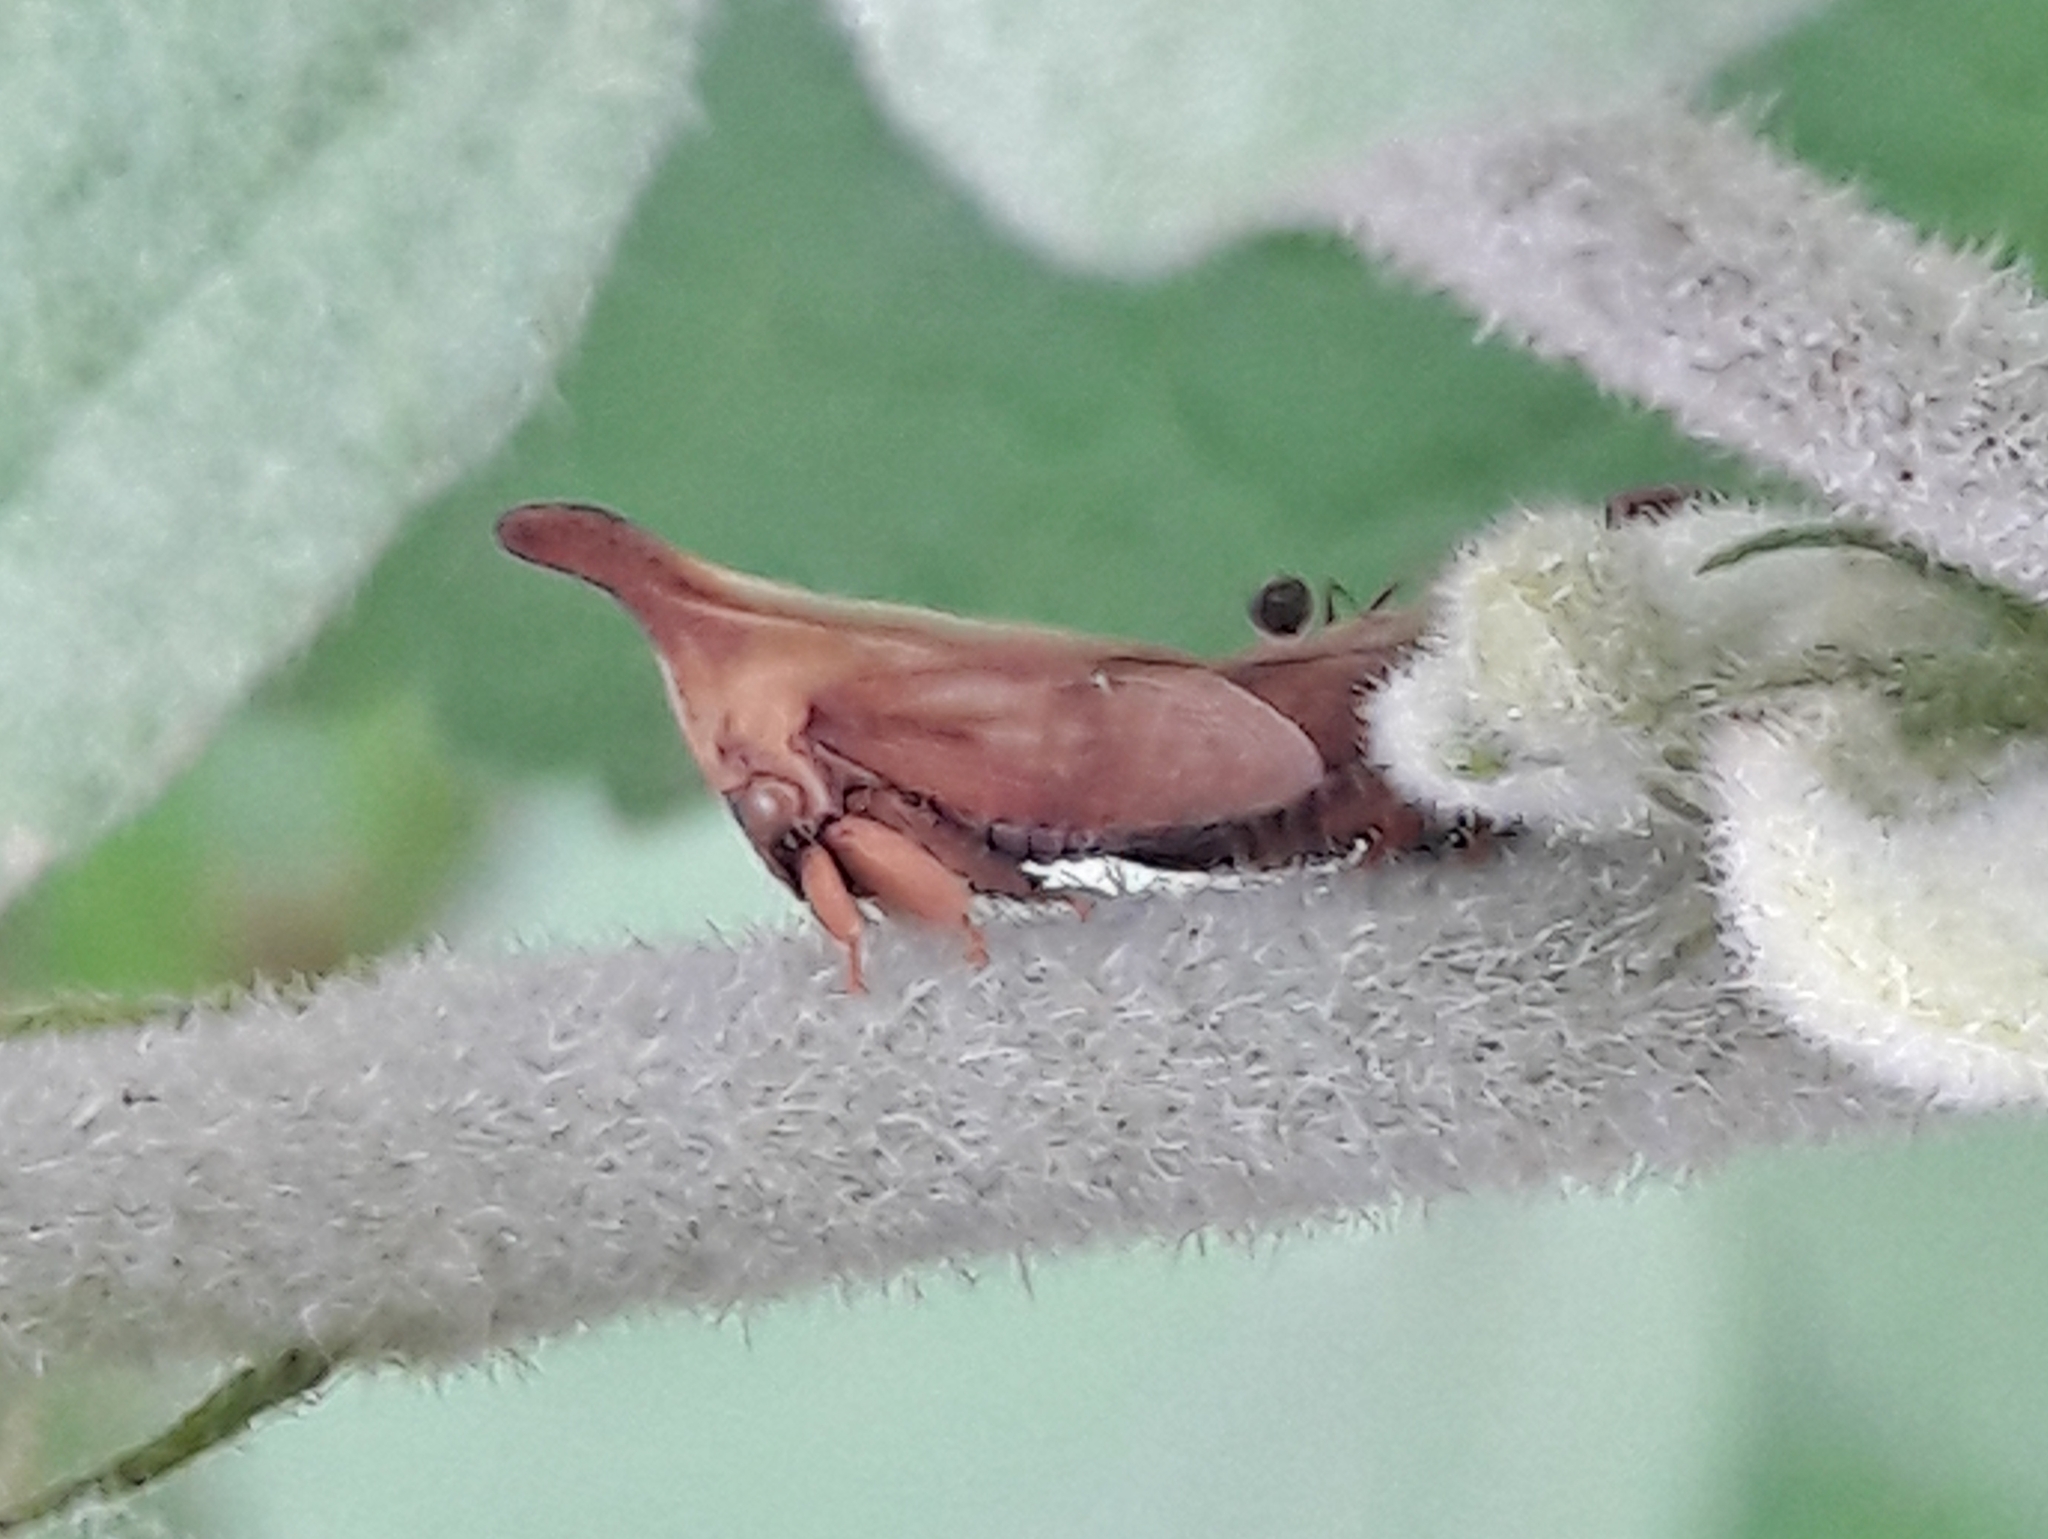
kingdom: Animalia
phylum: Arthropoda
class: Insecta
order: Hemiptera
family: Membracidae
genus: Enchenopa
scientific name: Enchenopa gracilis
